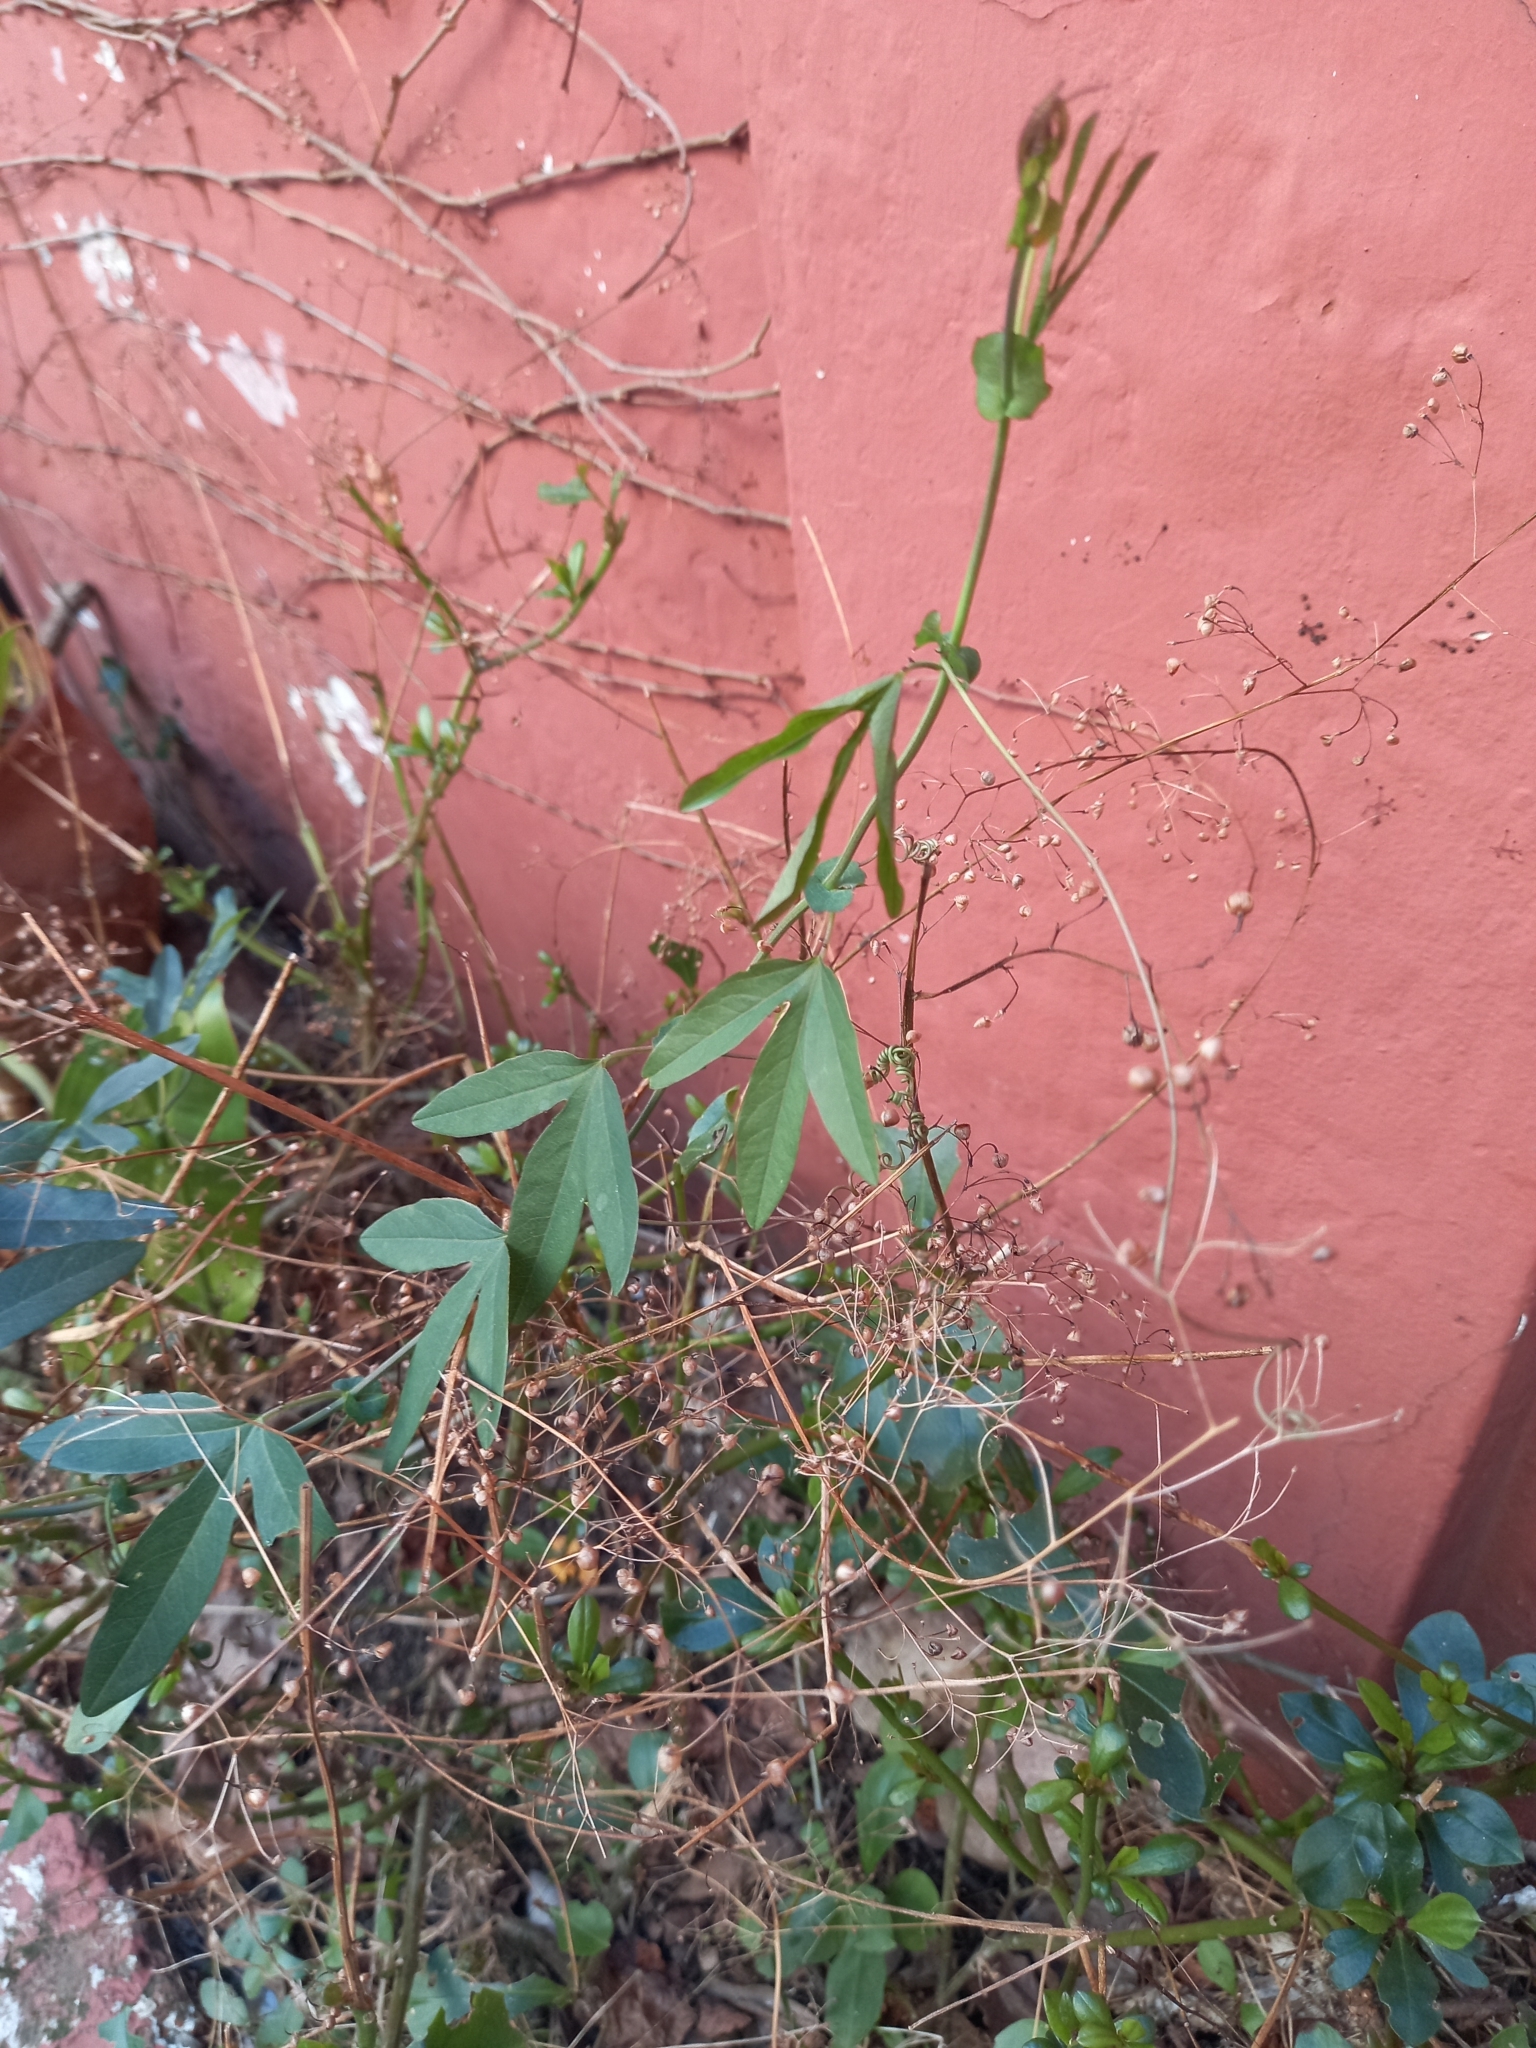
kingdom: Plantae
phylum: Tracheophyta
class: Magnoliopsida
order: Malpighiales
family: Passifloraceae
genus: Passiflora
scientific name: Passiflora caerulea
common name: Blue passionflower
